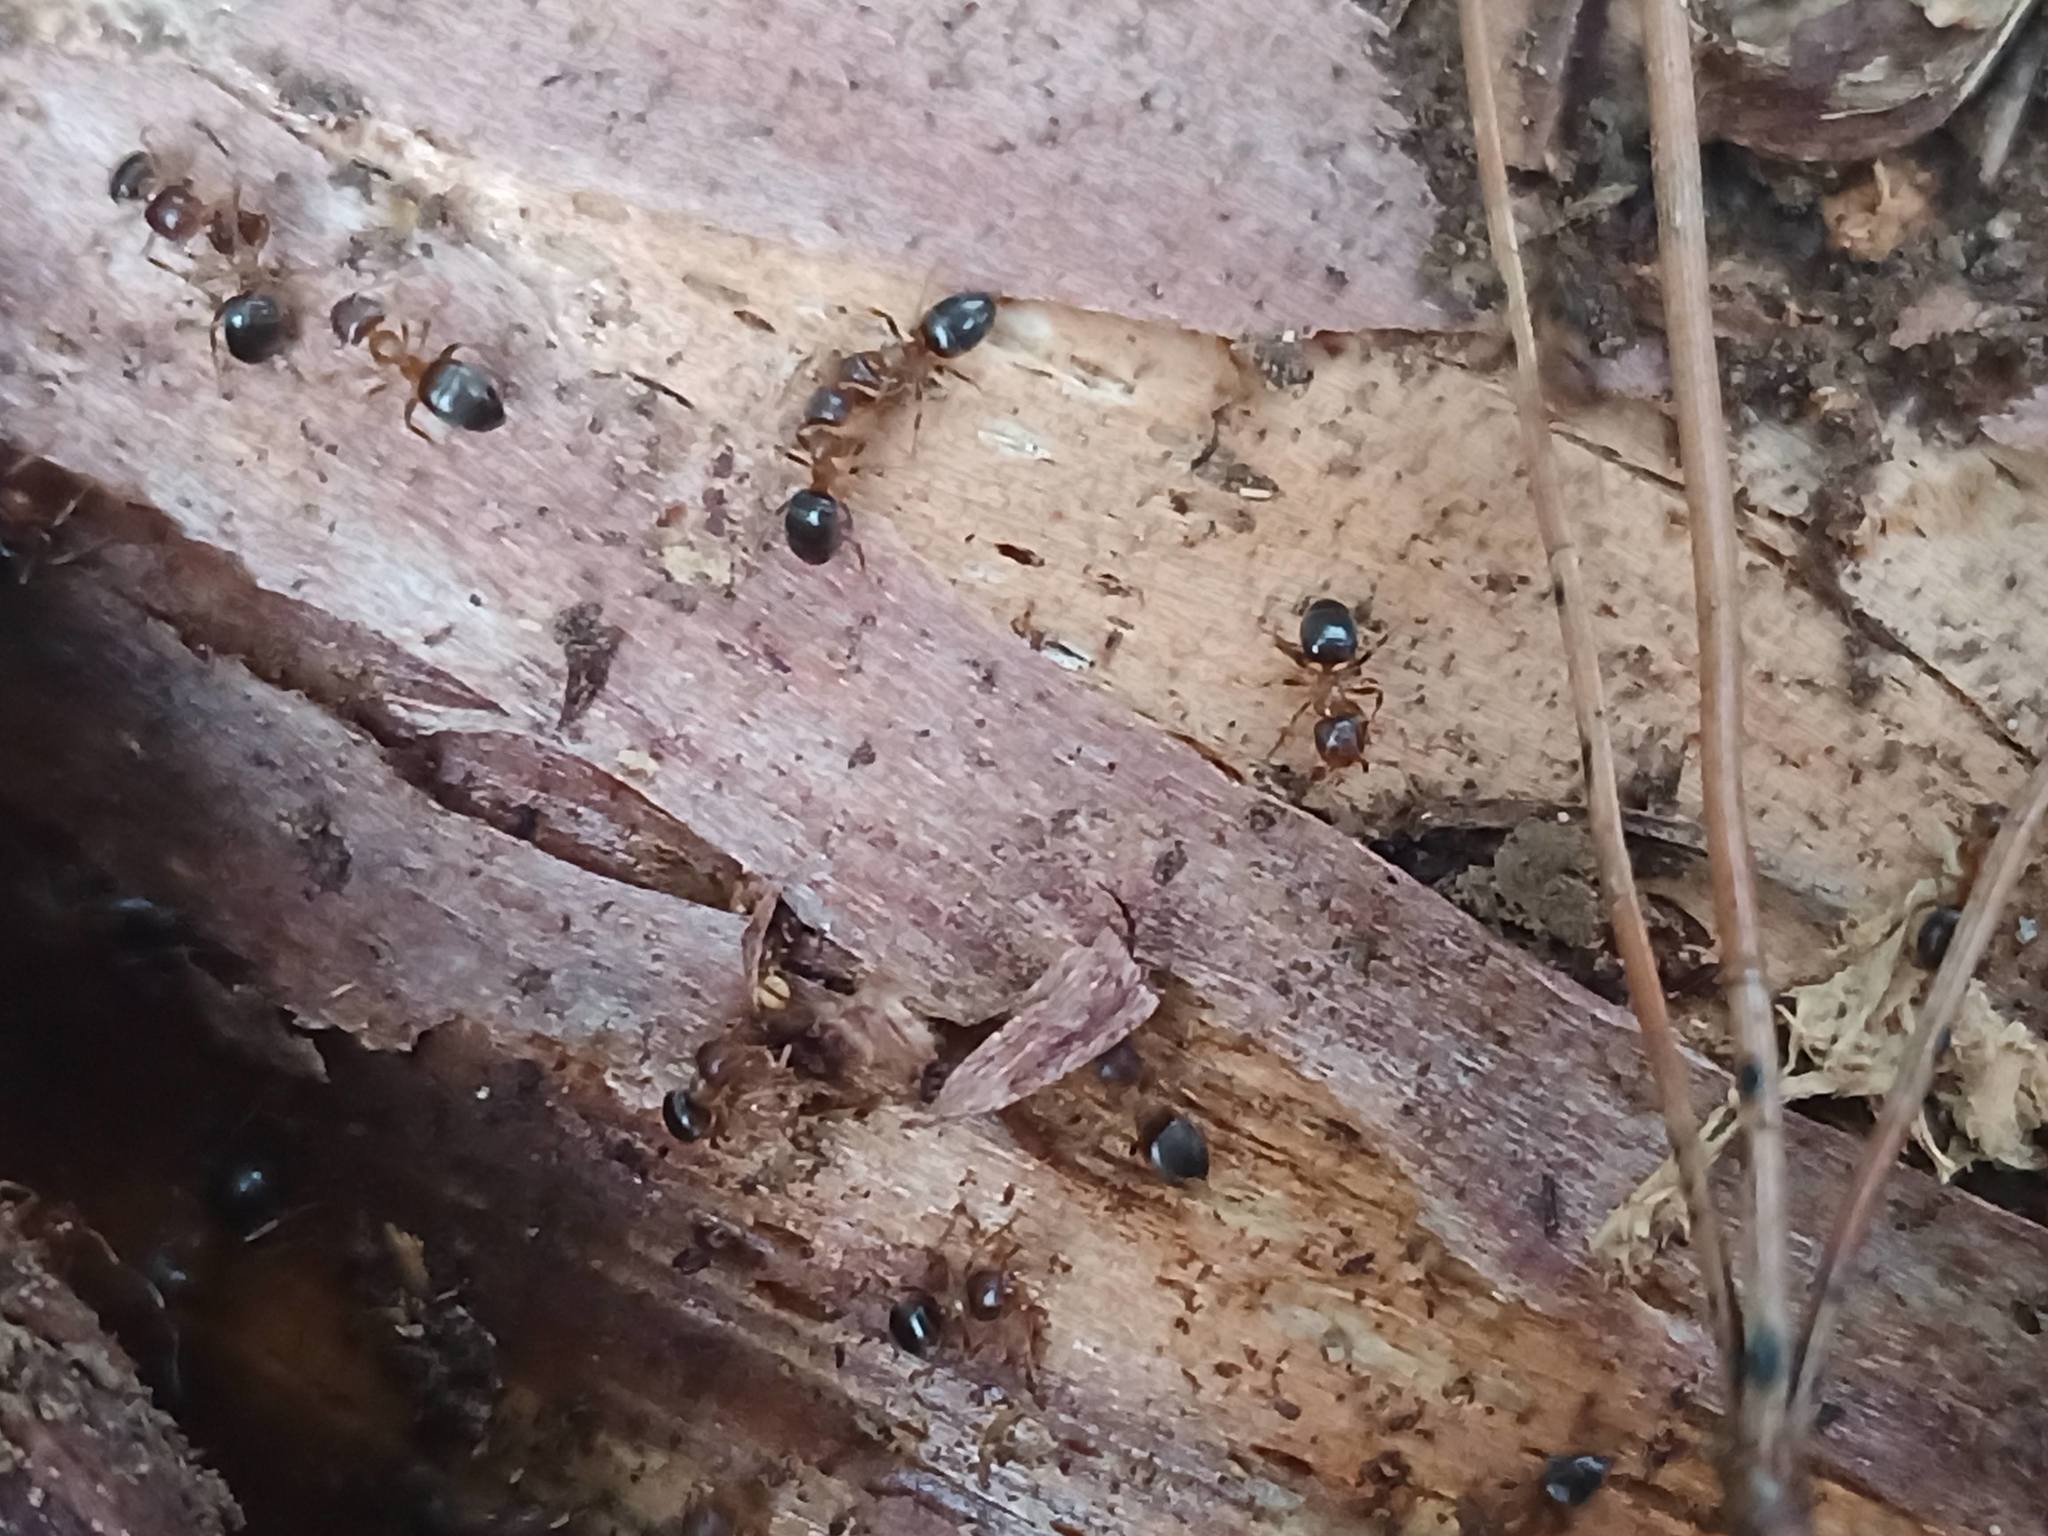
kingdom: Animalia
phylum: Arthropoda
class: Insecta
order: Hymenoptera
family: Formicidae
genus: Lasius
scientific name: Lasius emarginatus
